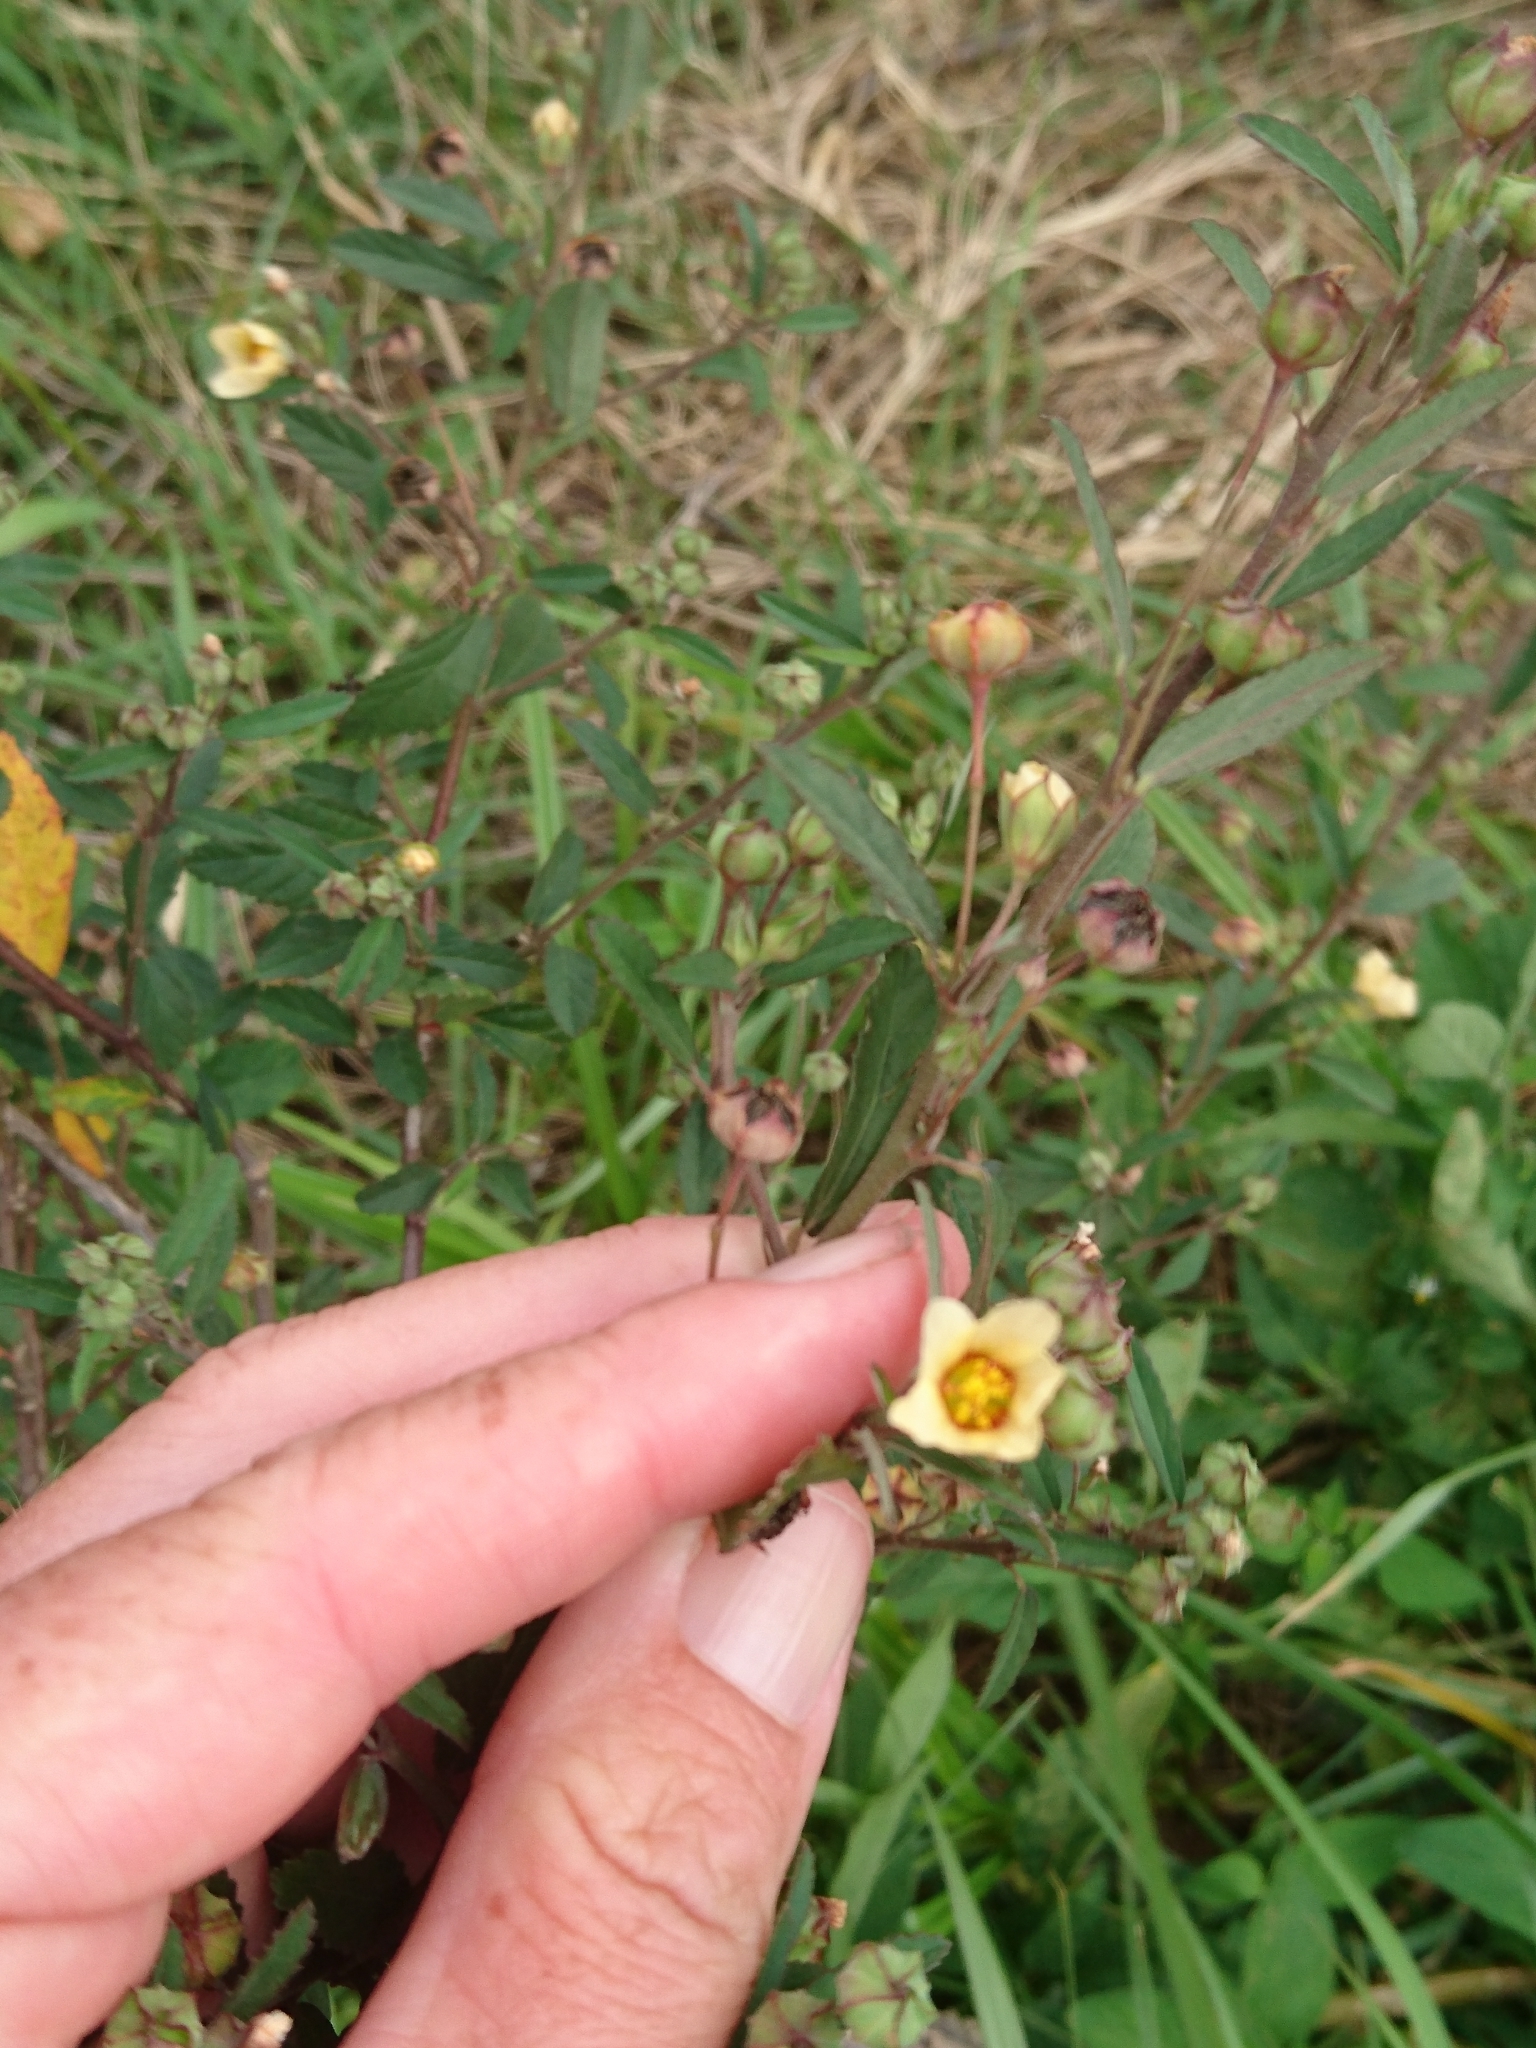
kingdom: Plantae
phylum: Tracheophyta
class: Magnoliopsida
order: Malvales
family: Malvaceae
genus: Sida
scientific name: Sida rhombifolia
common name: Queensland-hemp
